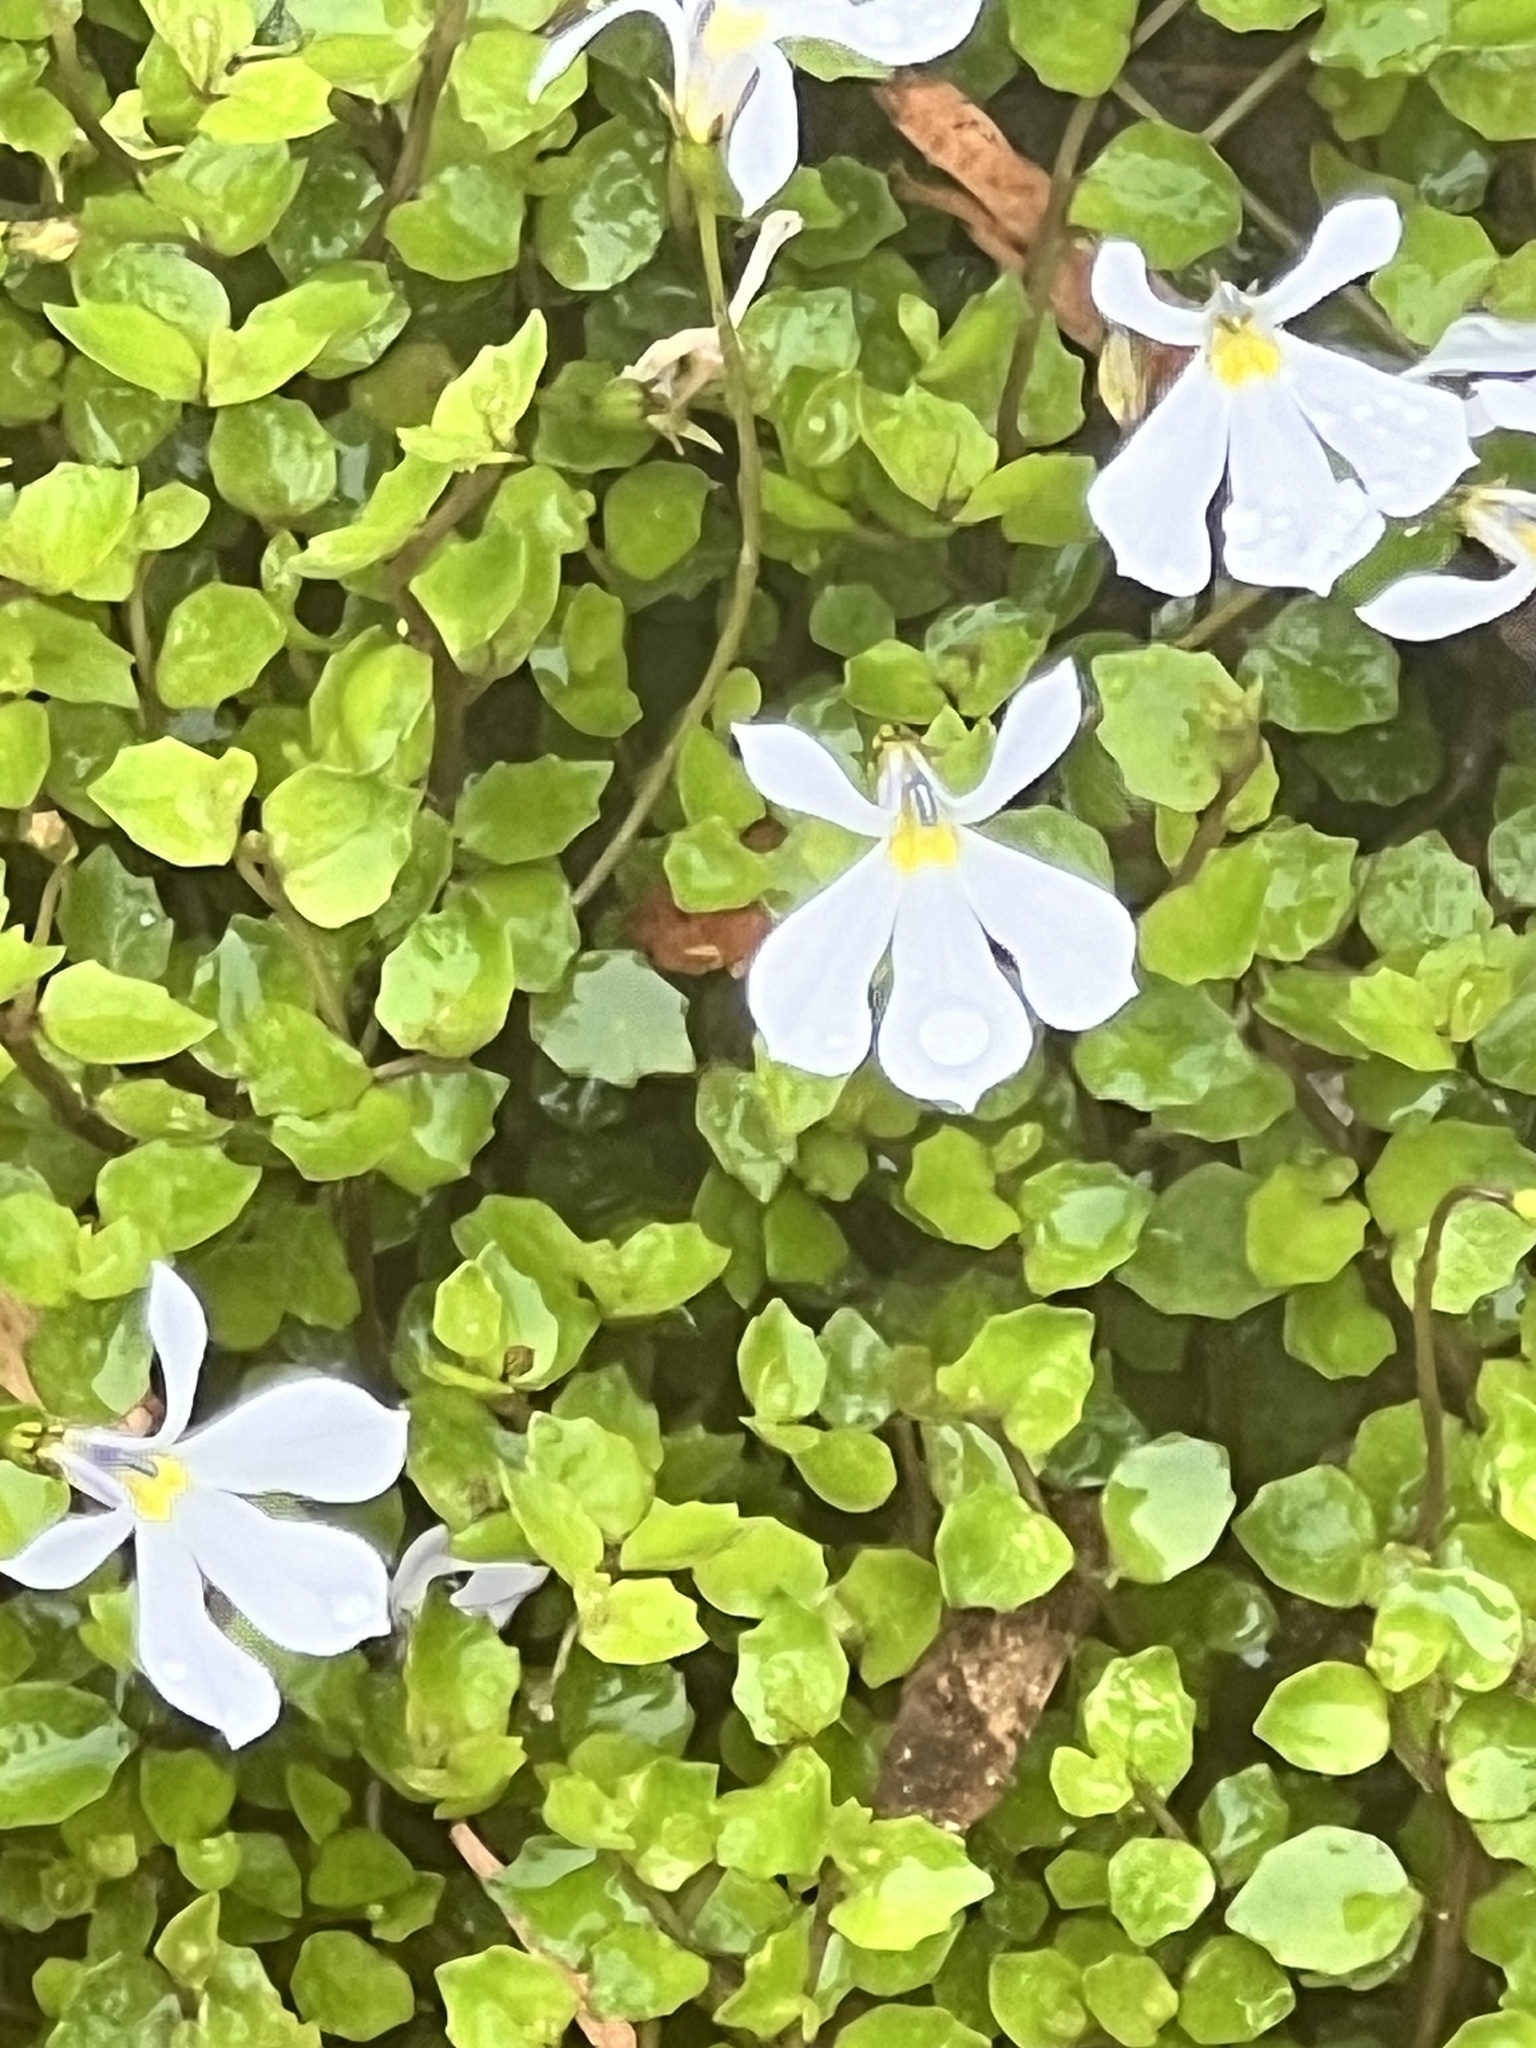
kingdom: Plantae
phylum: Tracheophyta
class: Magnoliopsida
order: Asterales
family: Campanulaceae
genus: Lobelia
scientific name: Lobelia angulata
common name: Lawn lobelia
